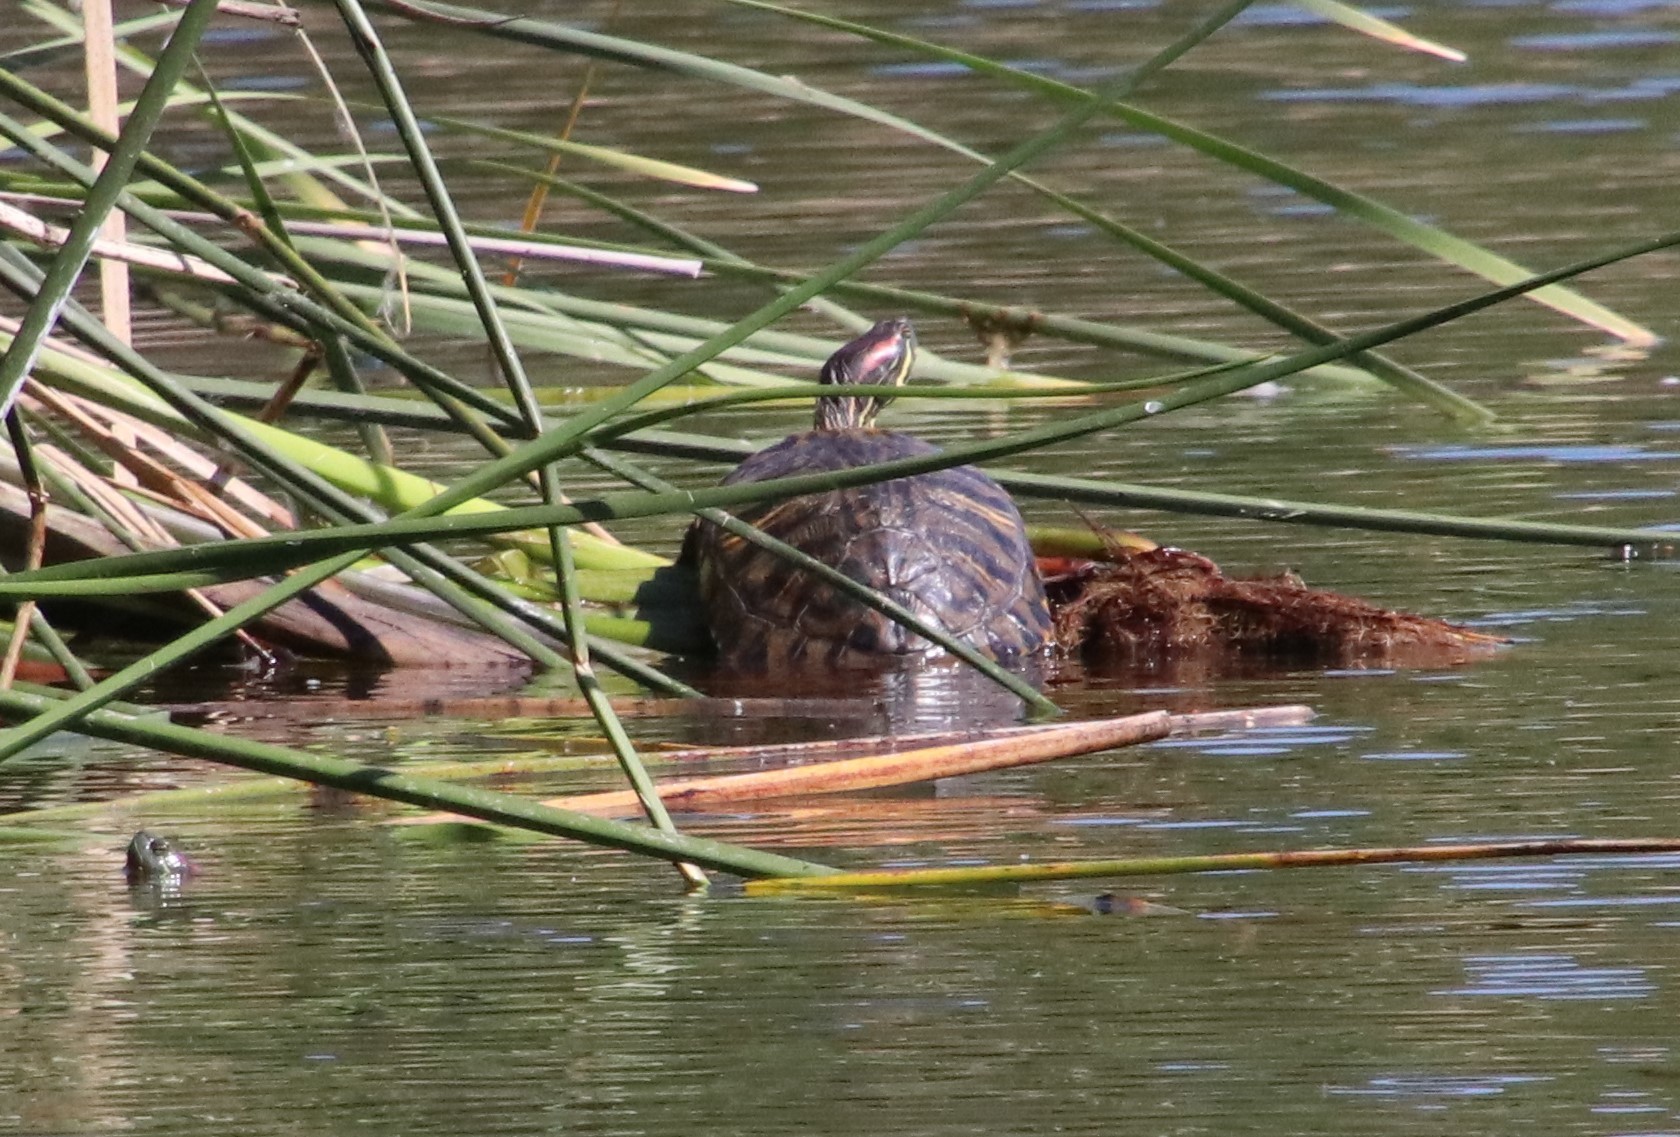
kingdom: Animalia
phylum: Chordata
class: Testudines
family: Emydidae
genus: Trachemys
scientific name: Trachemys scripta
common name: Slider
